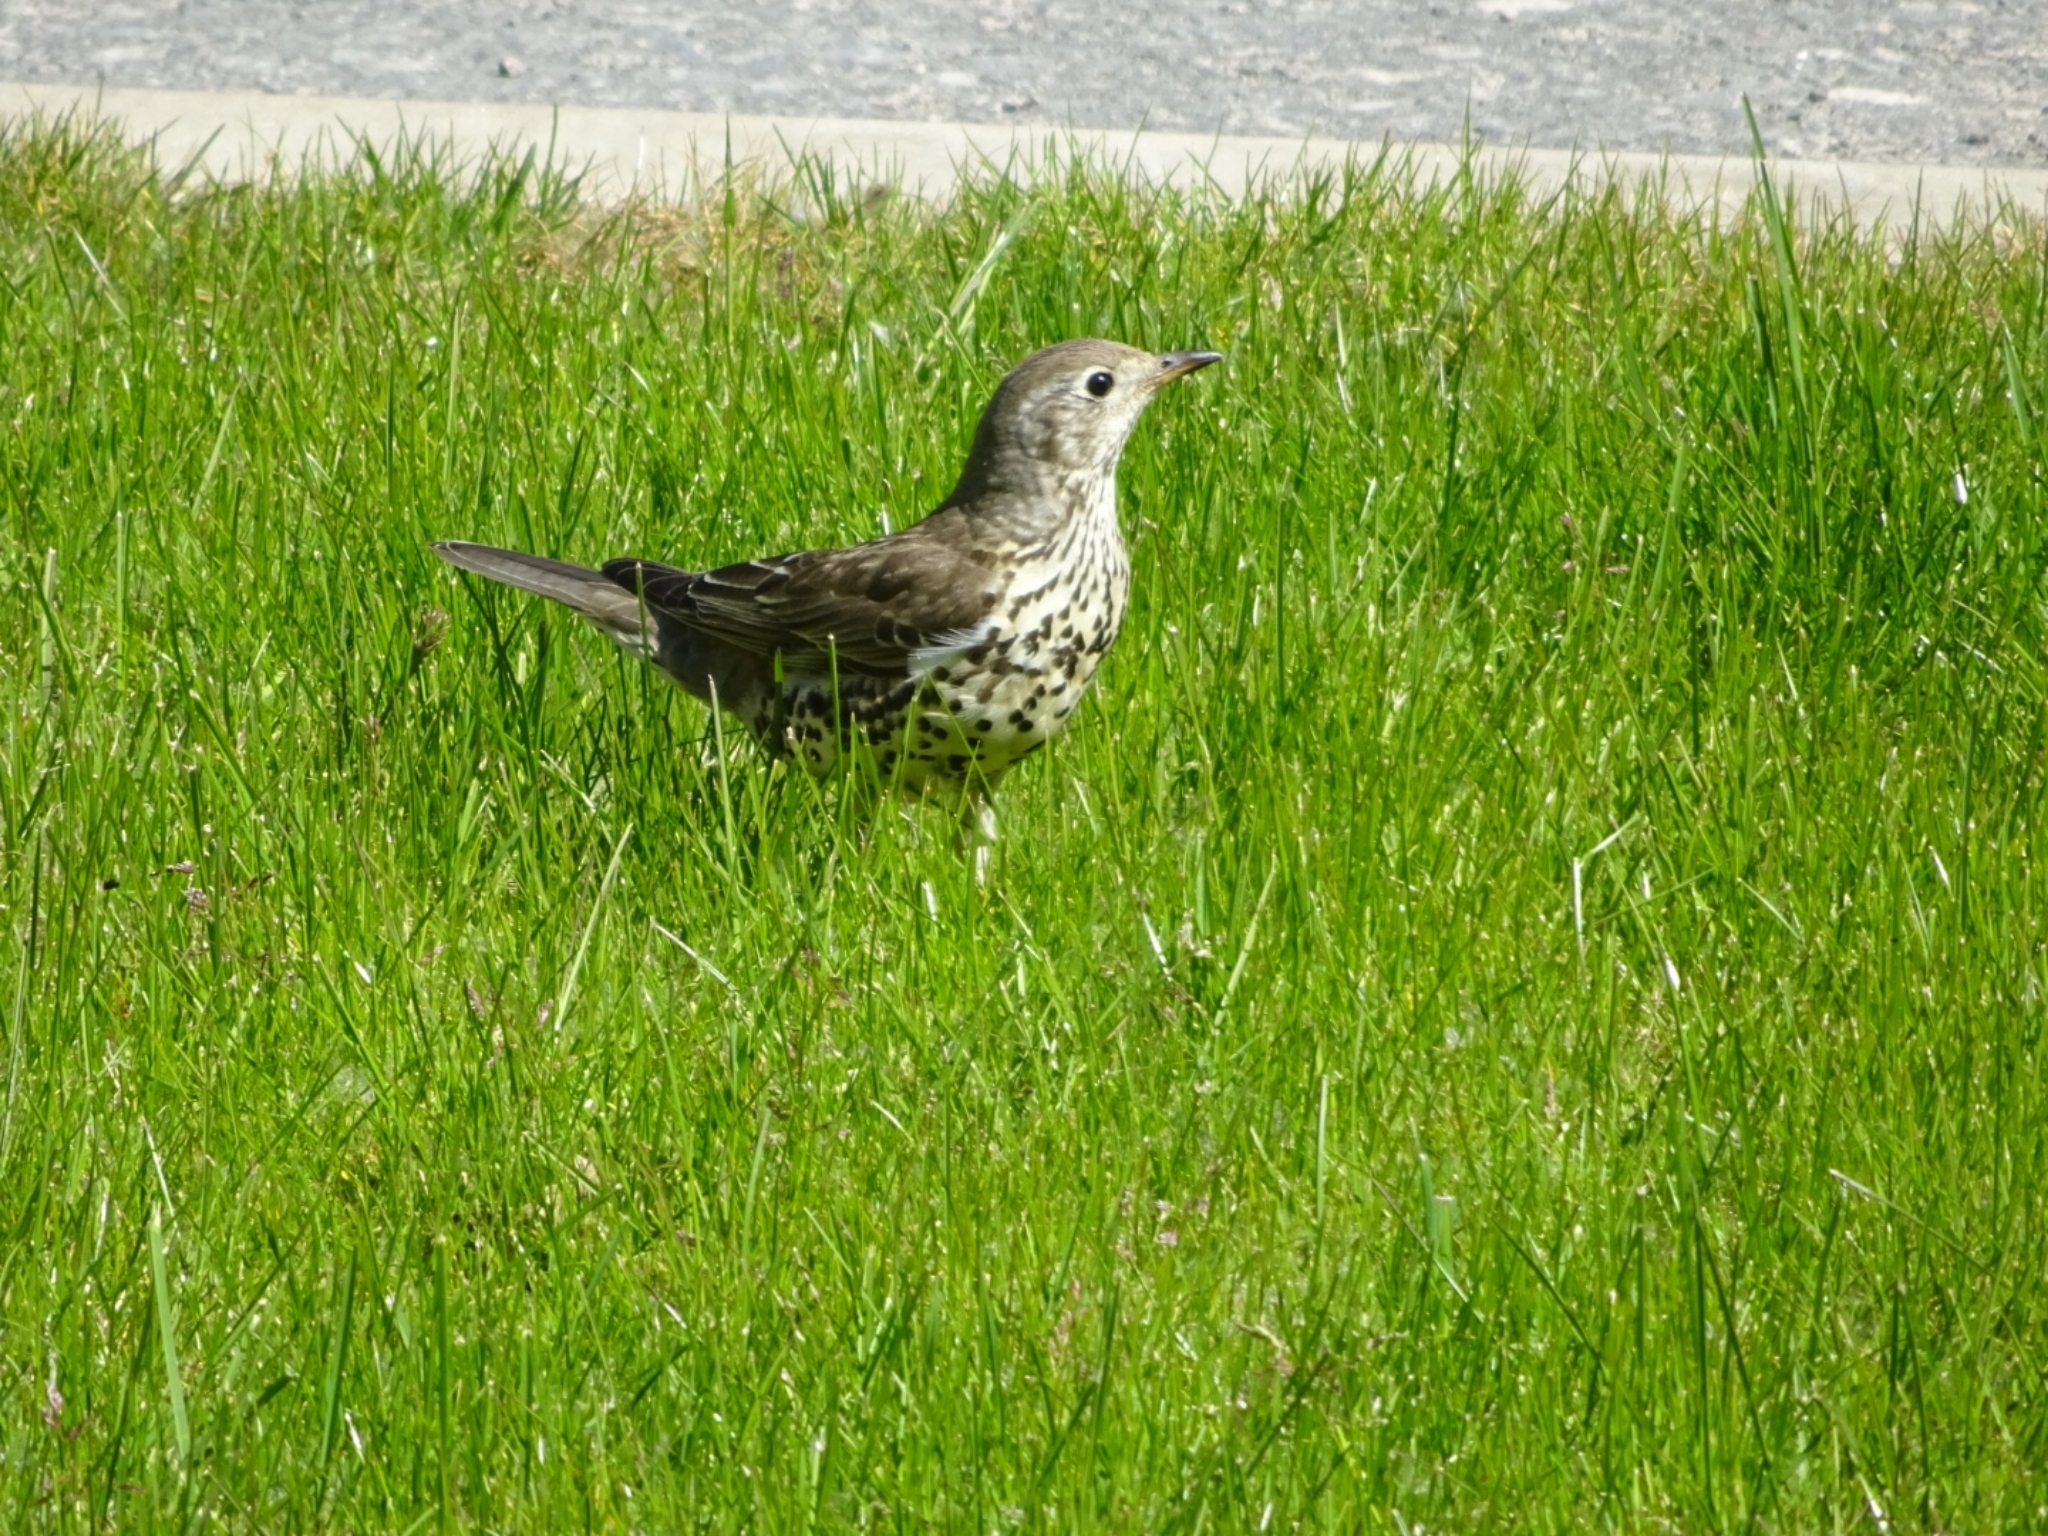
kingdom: Animalia
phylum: Chordata
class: Aves
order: Passeriformes
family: Turdidae
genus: Turdus
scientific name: Turdus viscivorus
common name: Mistle thrush
